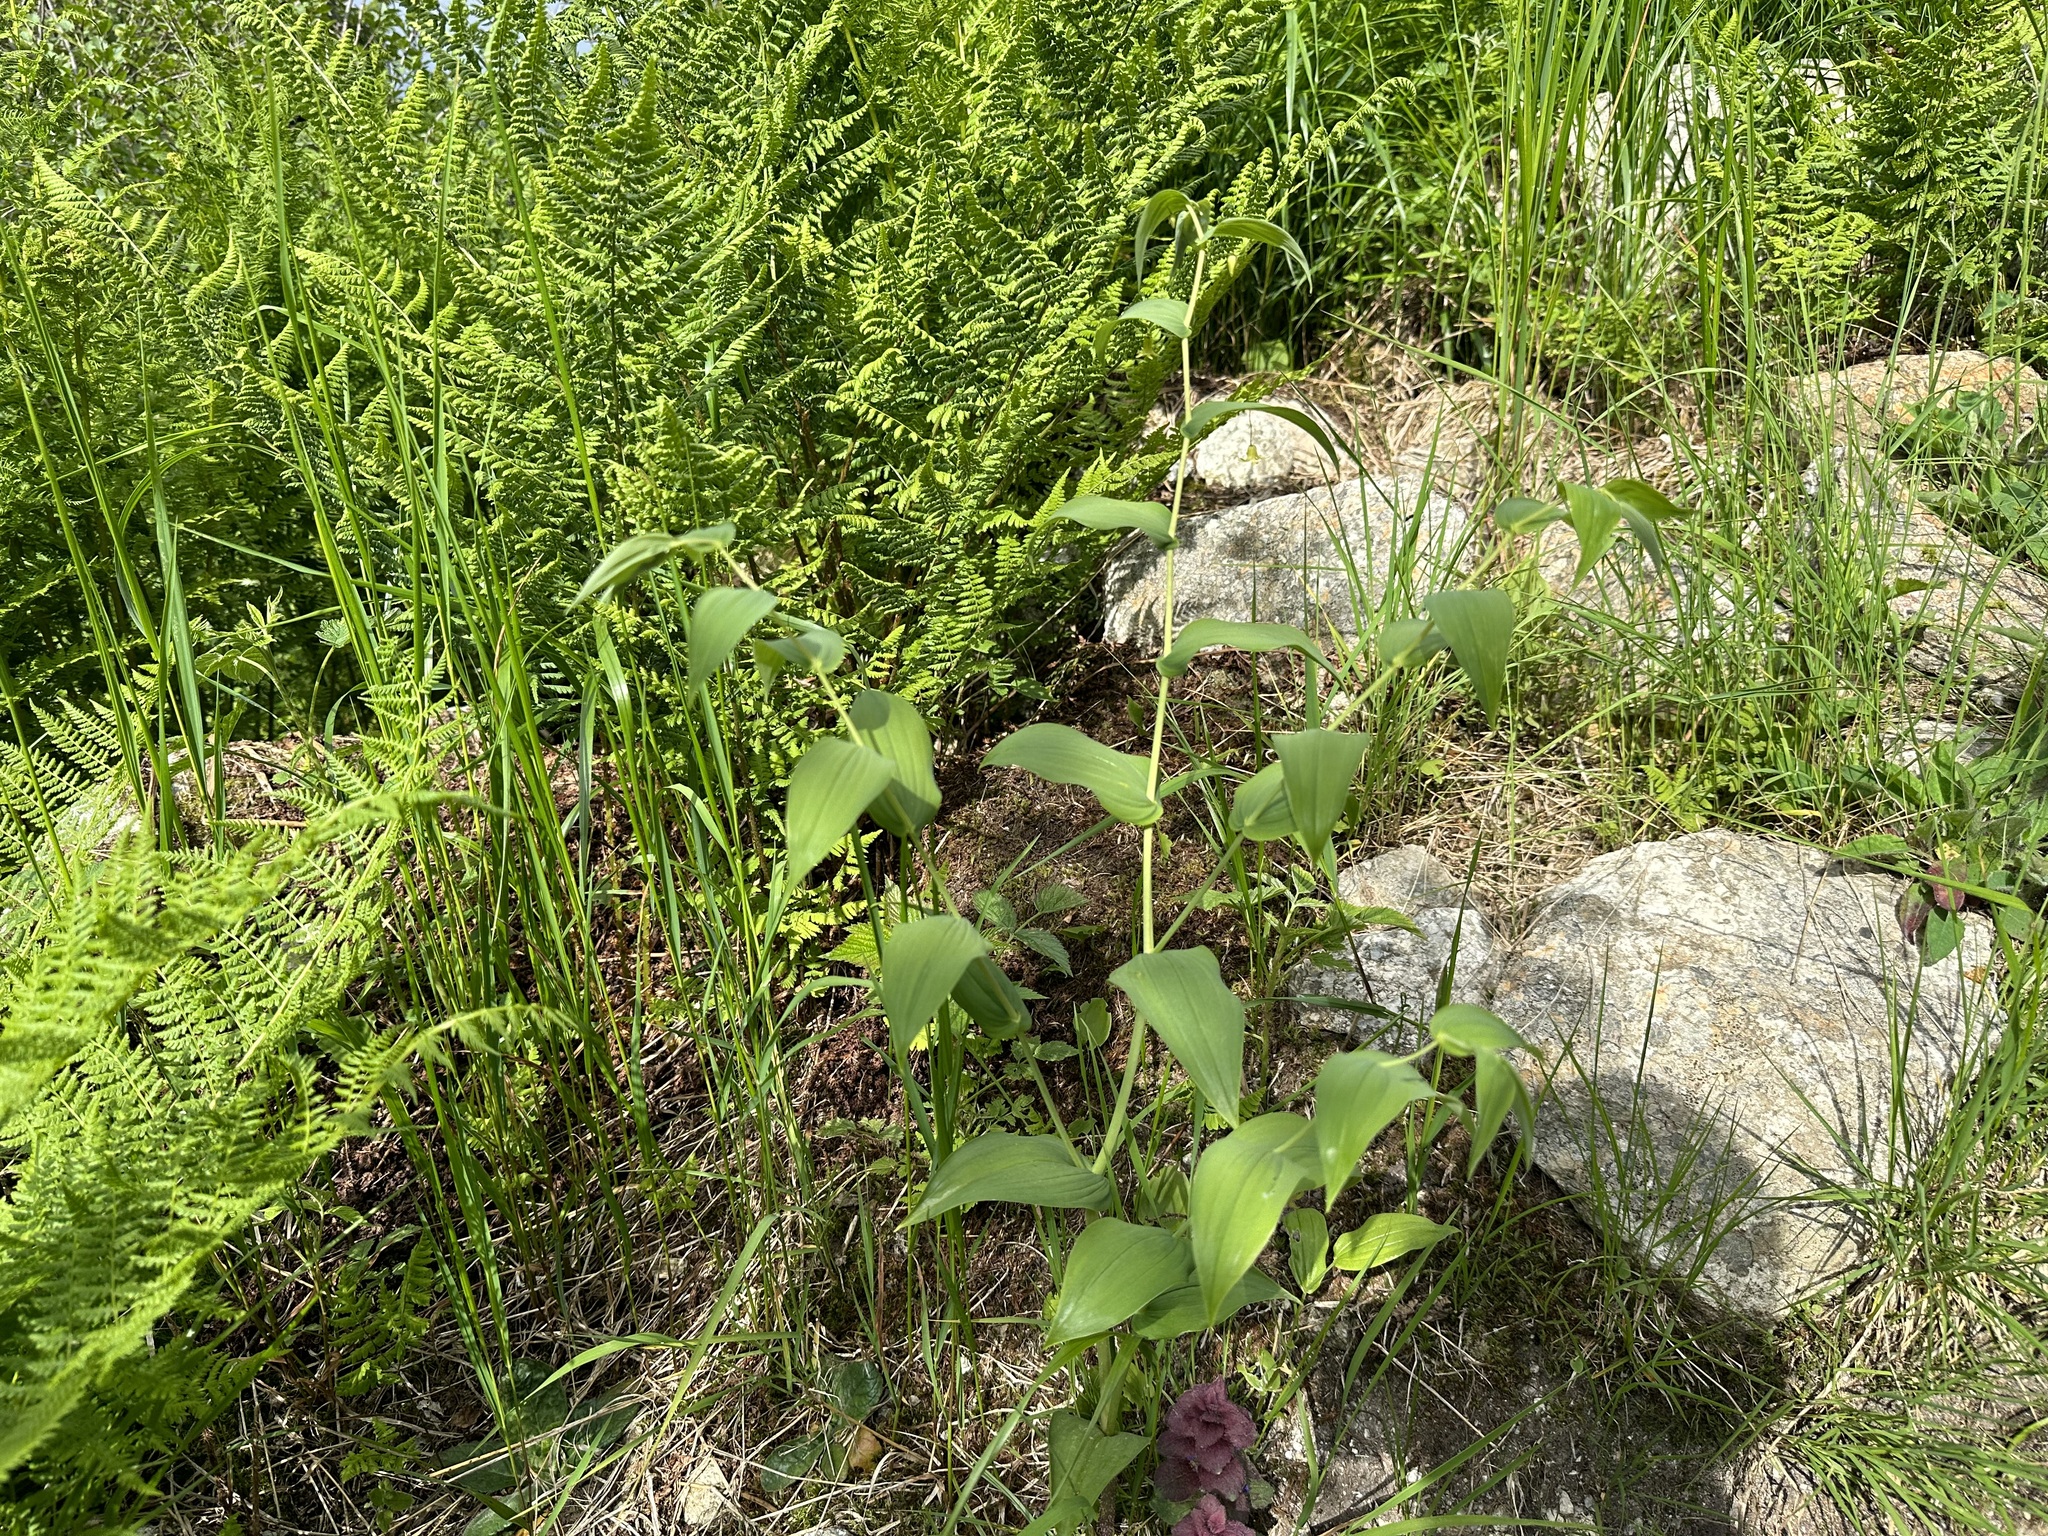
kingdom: Plantae
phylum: Tracheophyta
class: Liliopsida
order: Liliales
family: Liliaceae
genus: Streptopus
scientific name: Streptopus amplexifolius
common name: Clasp twisted stalk
